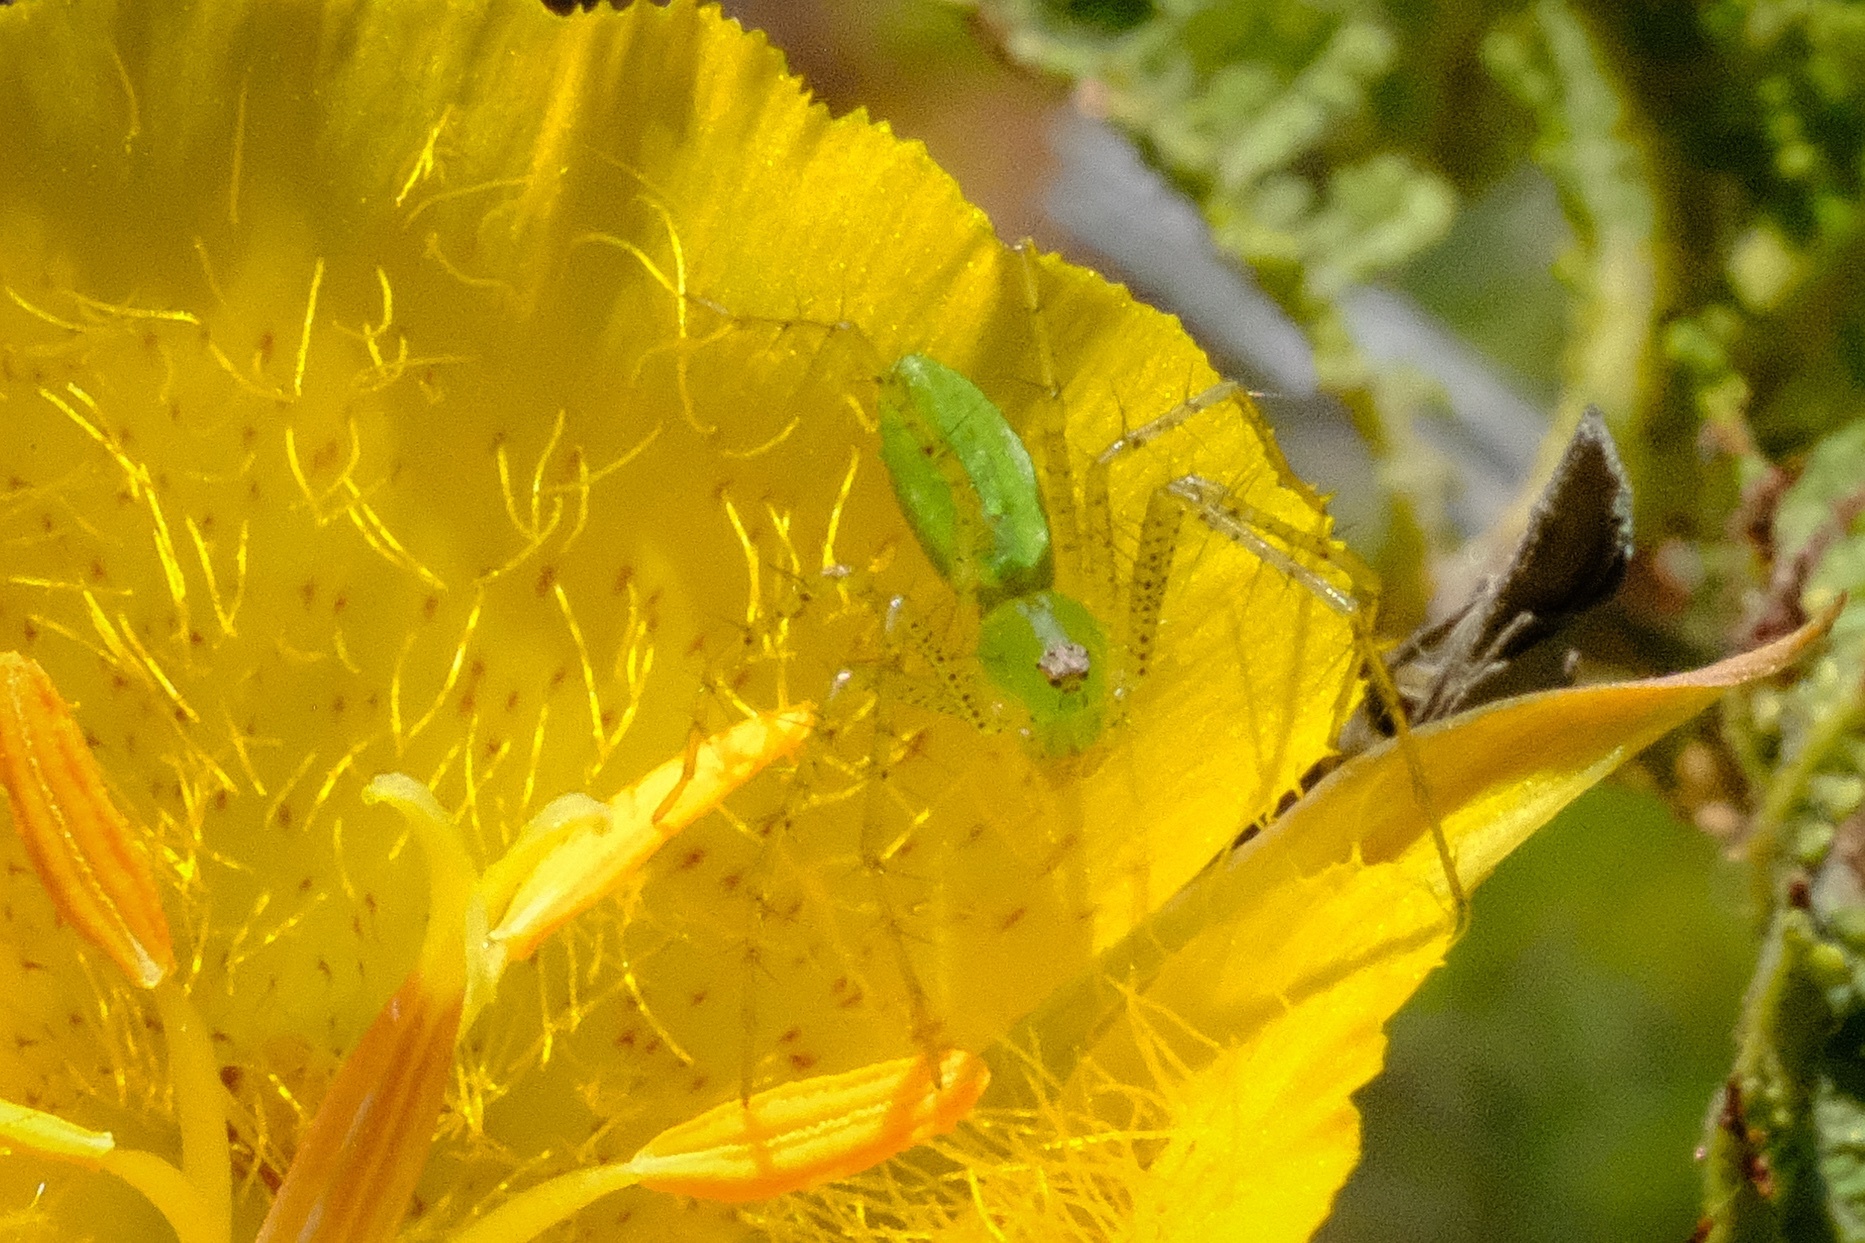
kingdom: Animalia
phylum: Arthropoda
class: Arachnida
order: Araneae
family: Oxyopidae
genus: Peucetia
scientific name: Peucetia viridans
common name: Lynx spiders
